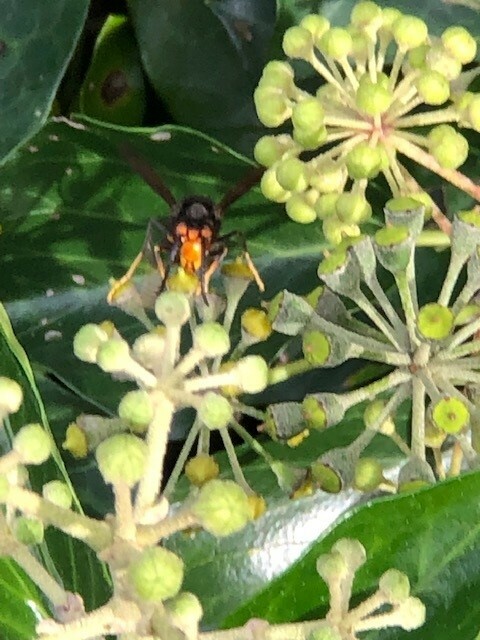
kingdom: Animalia
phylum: Arthropoda
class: Insecta
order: Hymenoptera
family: Vespidae
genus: Vespa
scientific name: Vespa velutina
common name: Asian hornet
